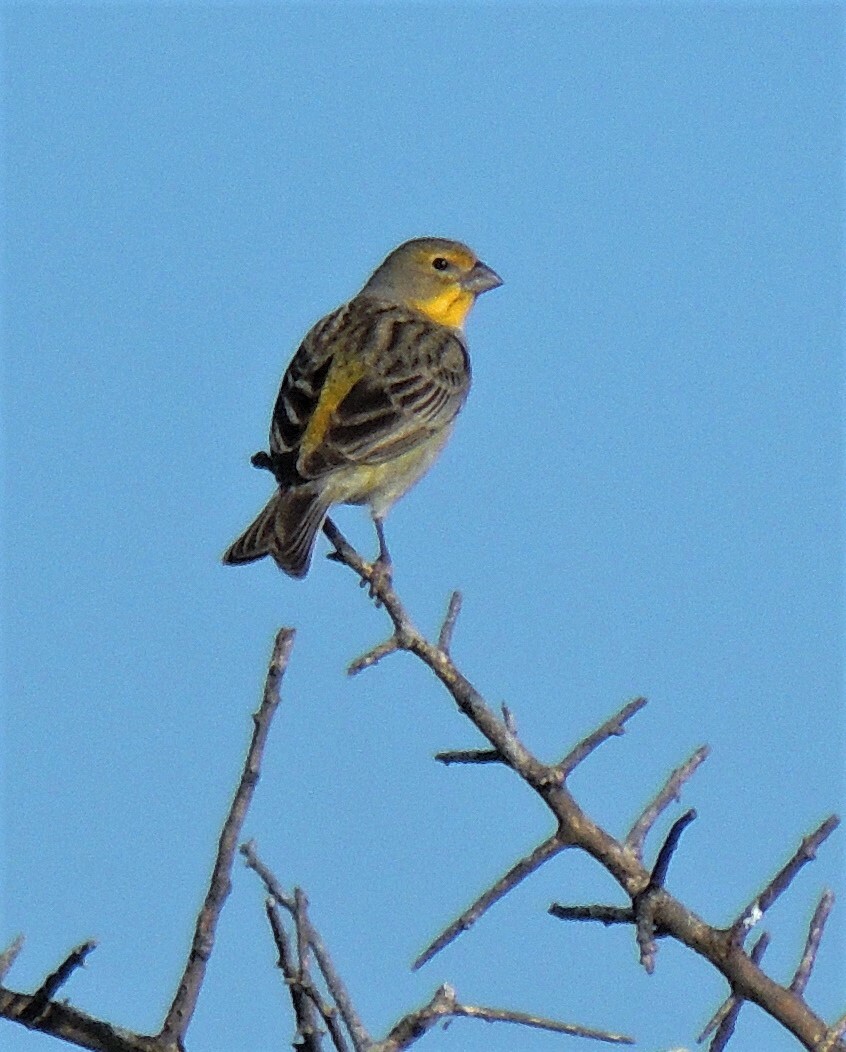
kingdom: Animalia
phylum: Chordata
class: Aves
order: Passeriformes
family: Thraupidae
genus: Sicalis
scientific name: Sicalis luteola
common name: Grassland yellow-finch
